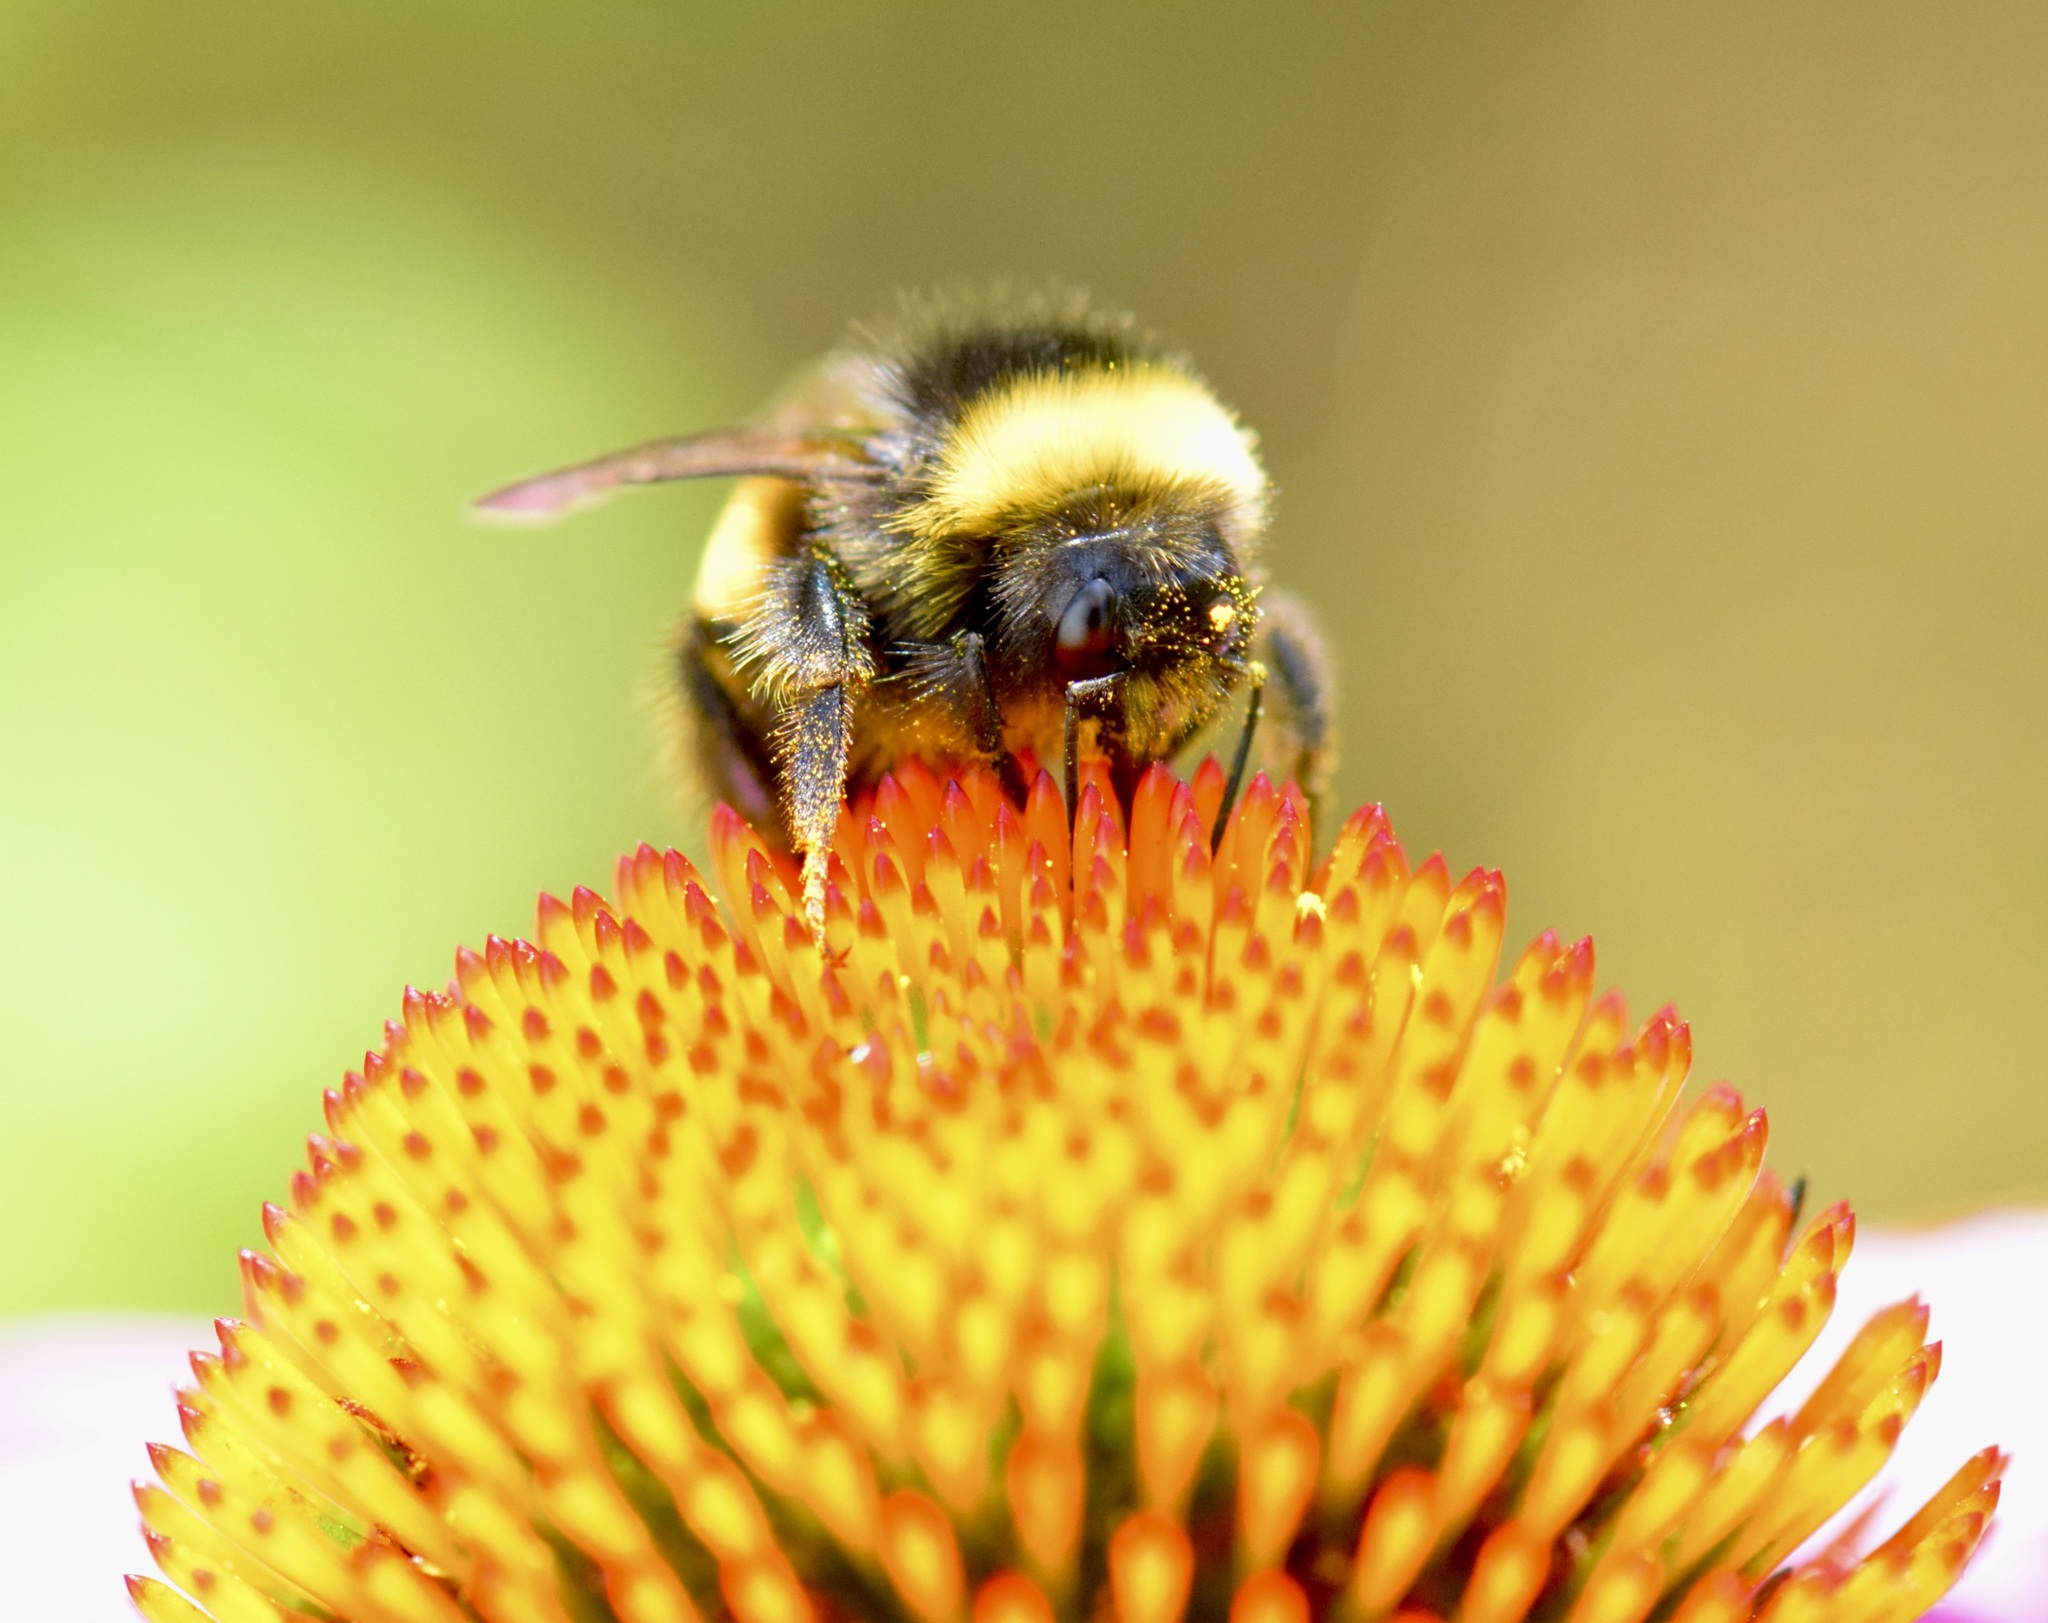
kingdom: Animalia
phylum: Arthropoda
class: Insecta
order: Hymenoptera
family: Apidae
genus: Bombus
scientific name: Bombus terricola
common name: Yellow-banded bumble bee
